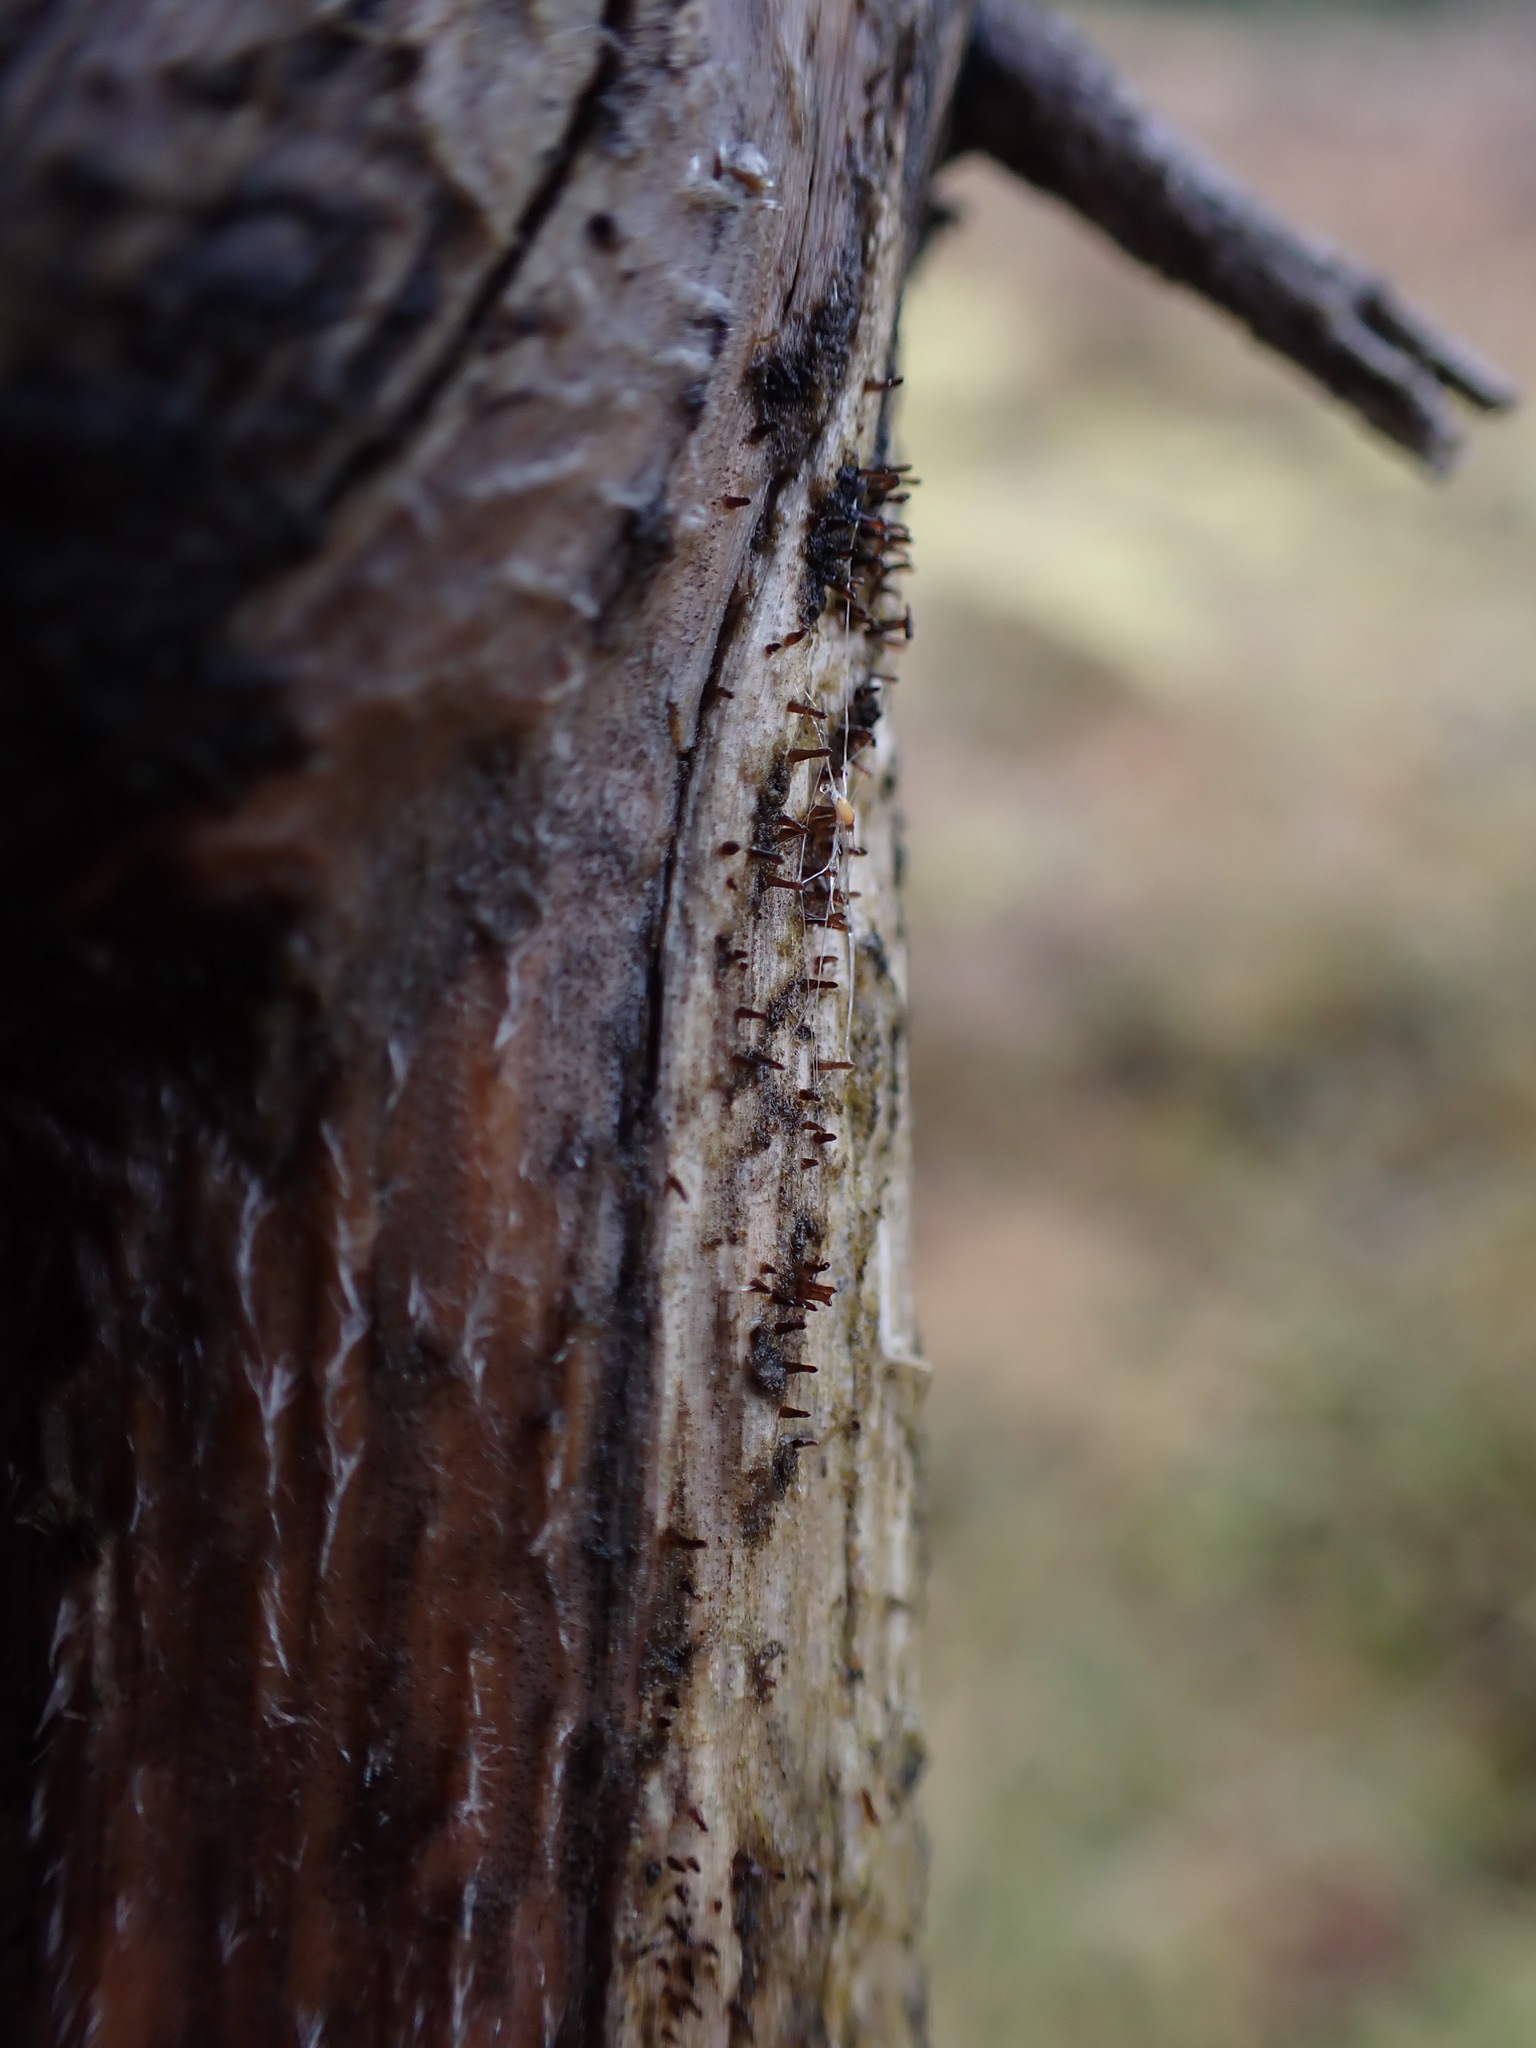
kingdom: Fungi
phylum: Basidiomycota
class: Dacrymycetes
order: Dacrymycetales
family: Dacryonaemataceae
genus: Dacryonaema
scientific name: Dacryonaema rufum
